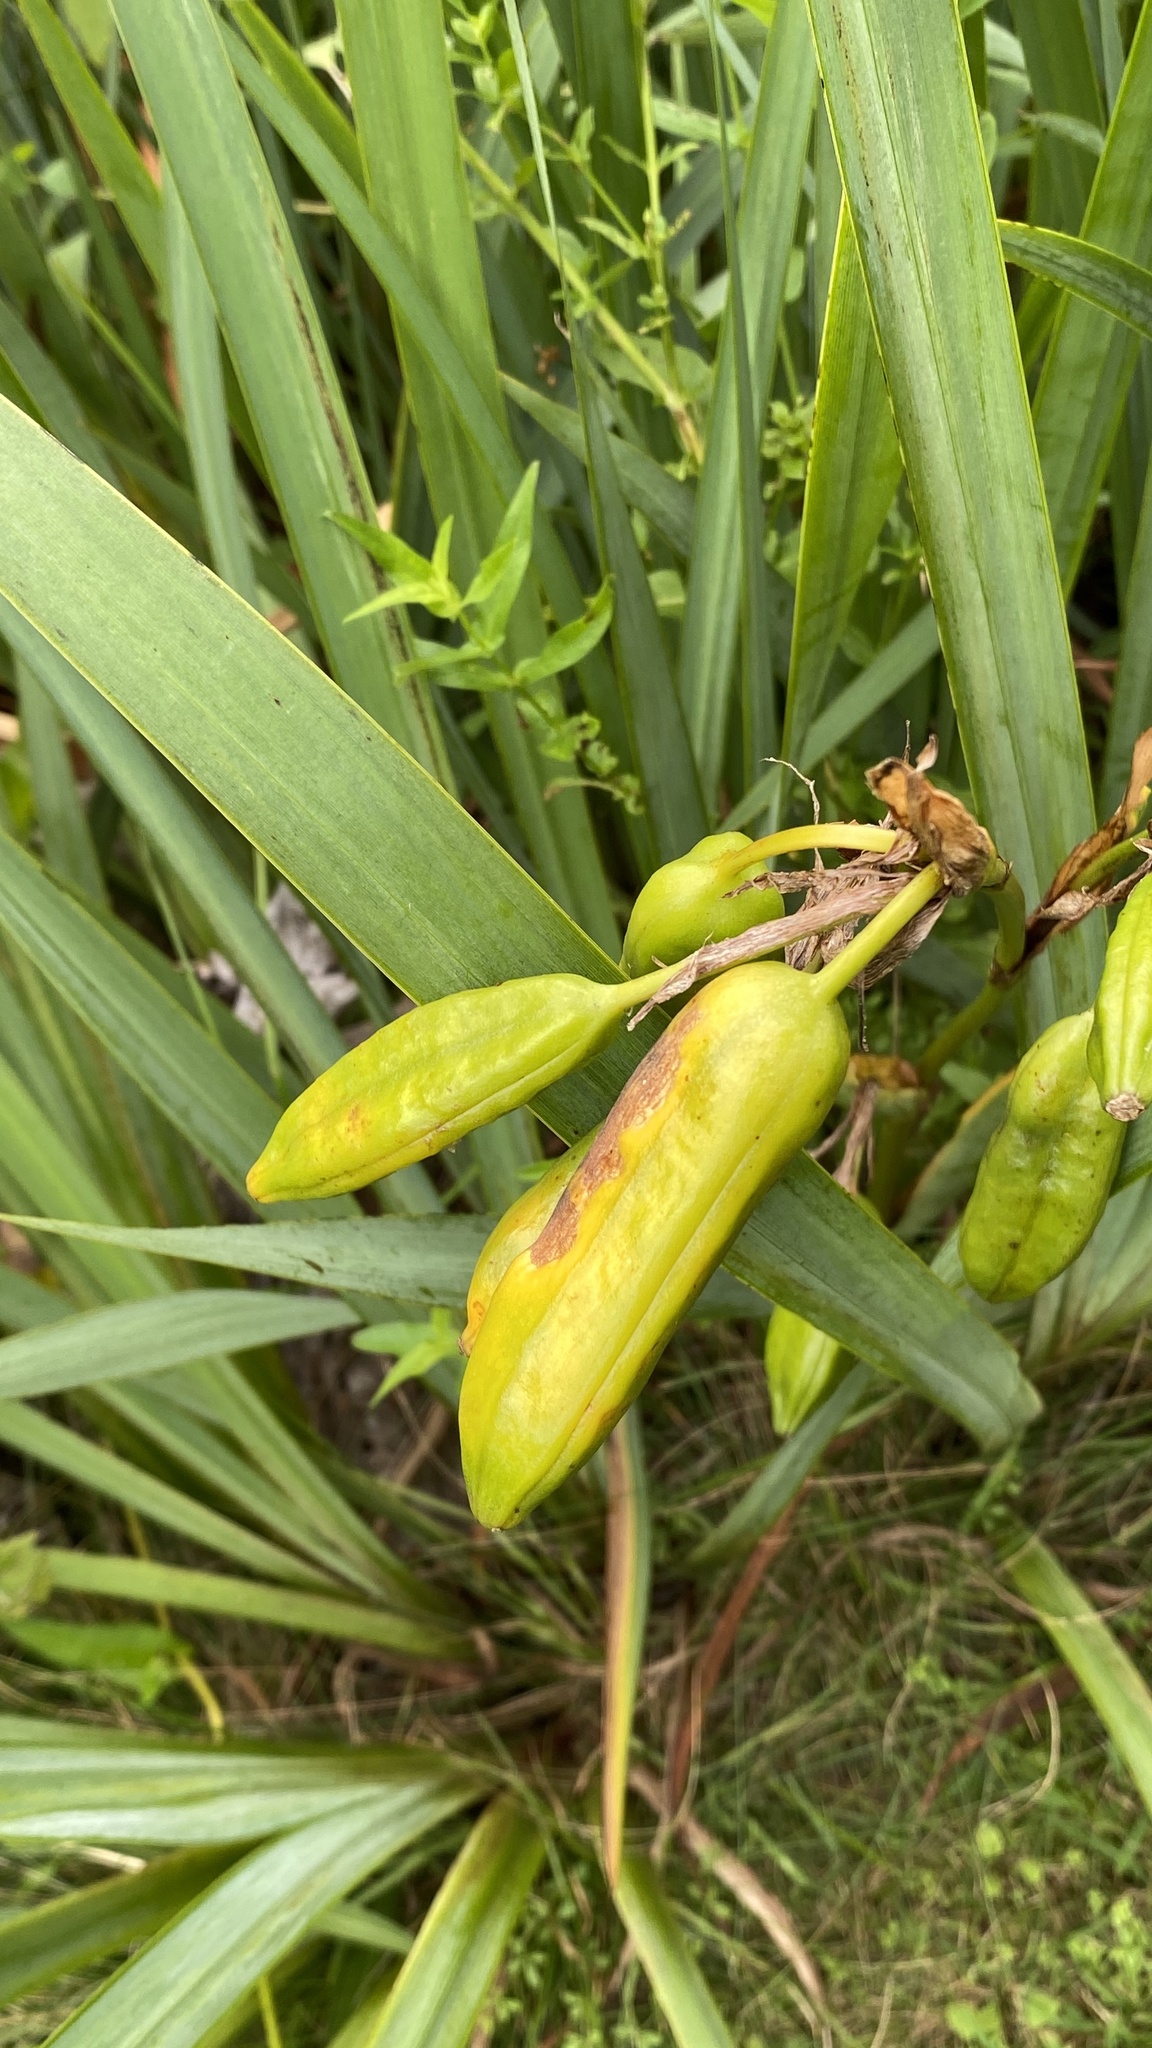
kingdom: Plantae
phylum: Tracheophyta
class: Liliopsida
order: Asparagales
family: Iridaceae
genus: Iris
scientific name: Iris pseudacorus
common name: Yellow flag
